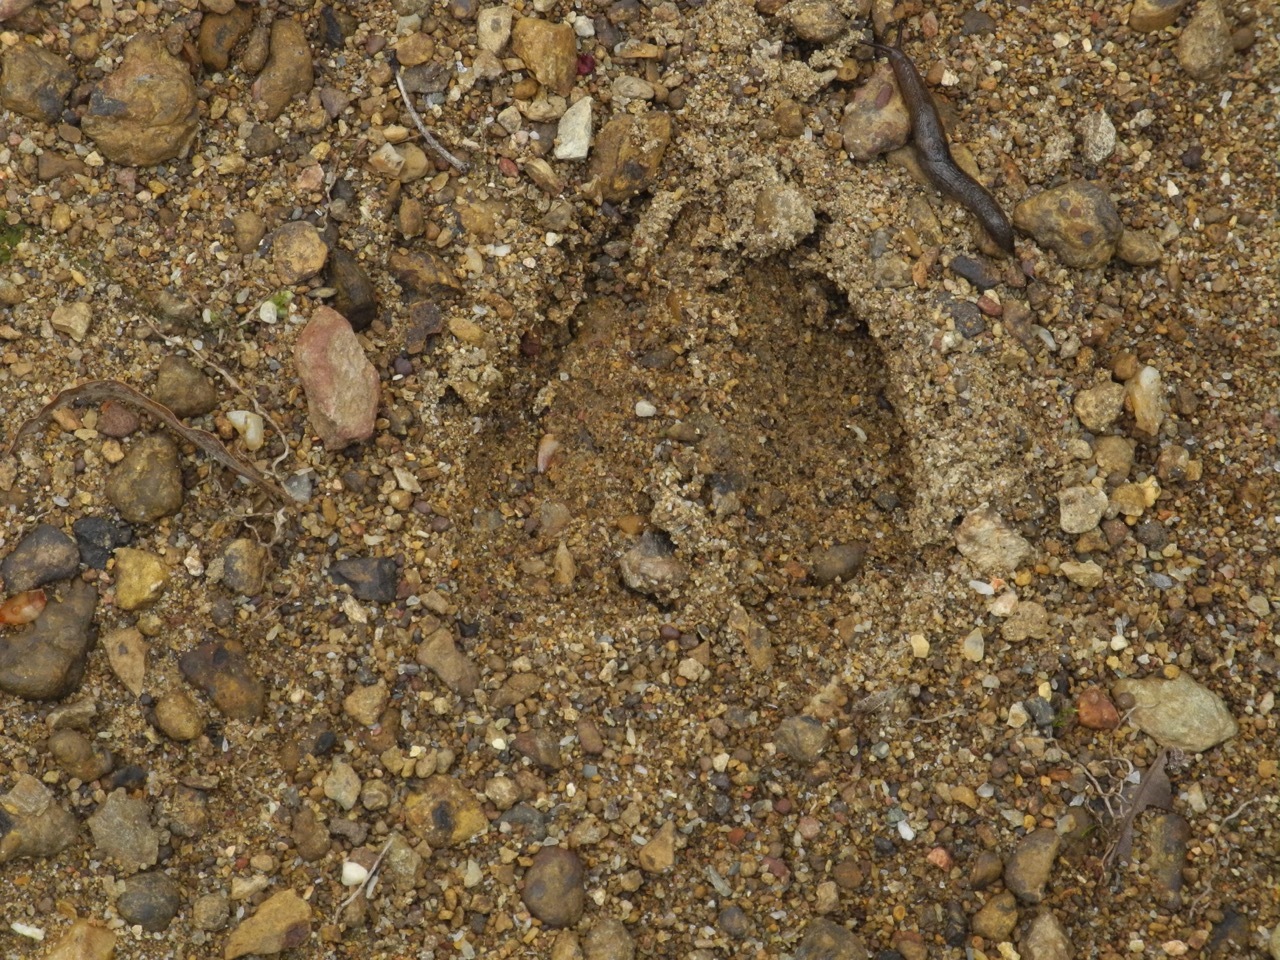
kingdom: Animalia
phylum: Chordata
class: Mammalia
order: Artiodactyla
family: Cervidae
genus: Odocoileus
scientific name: Odocoileus virginianus
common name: White-tailed deer
